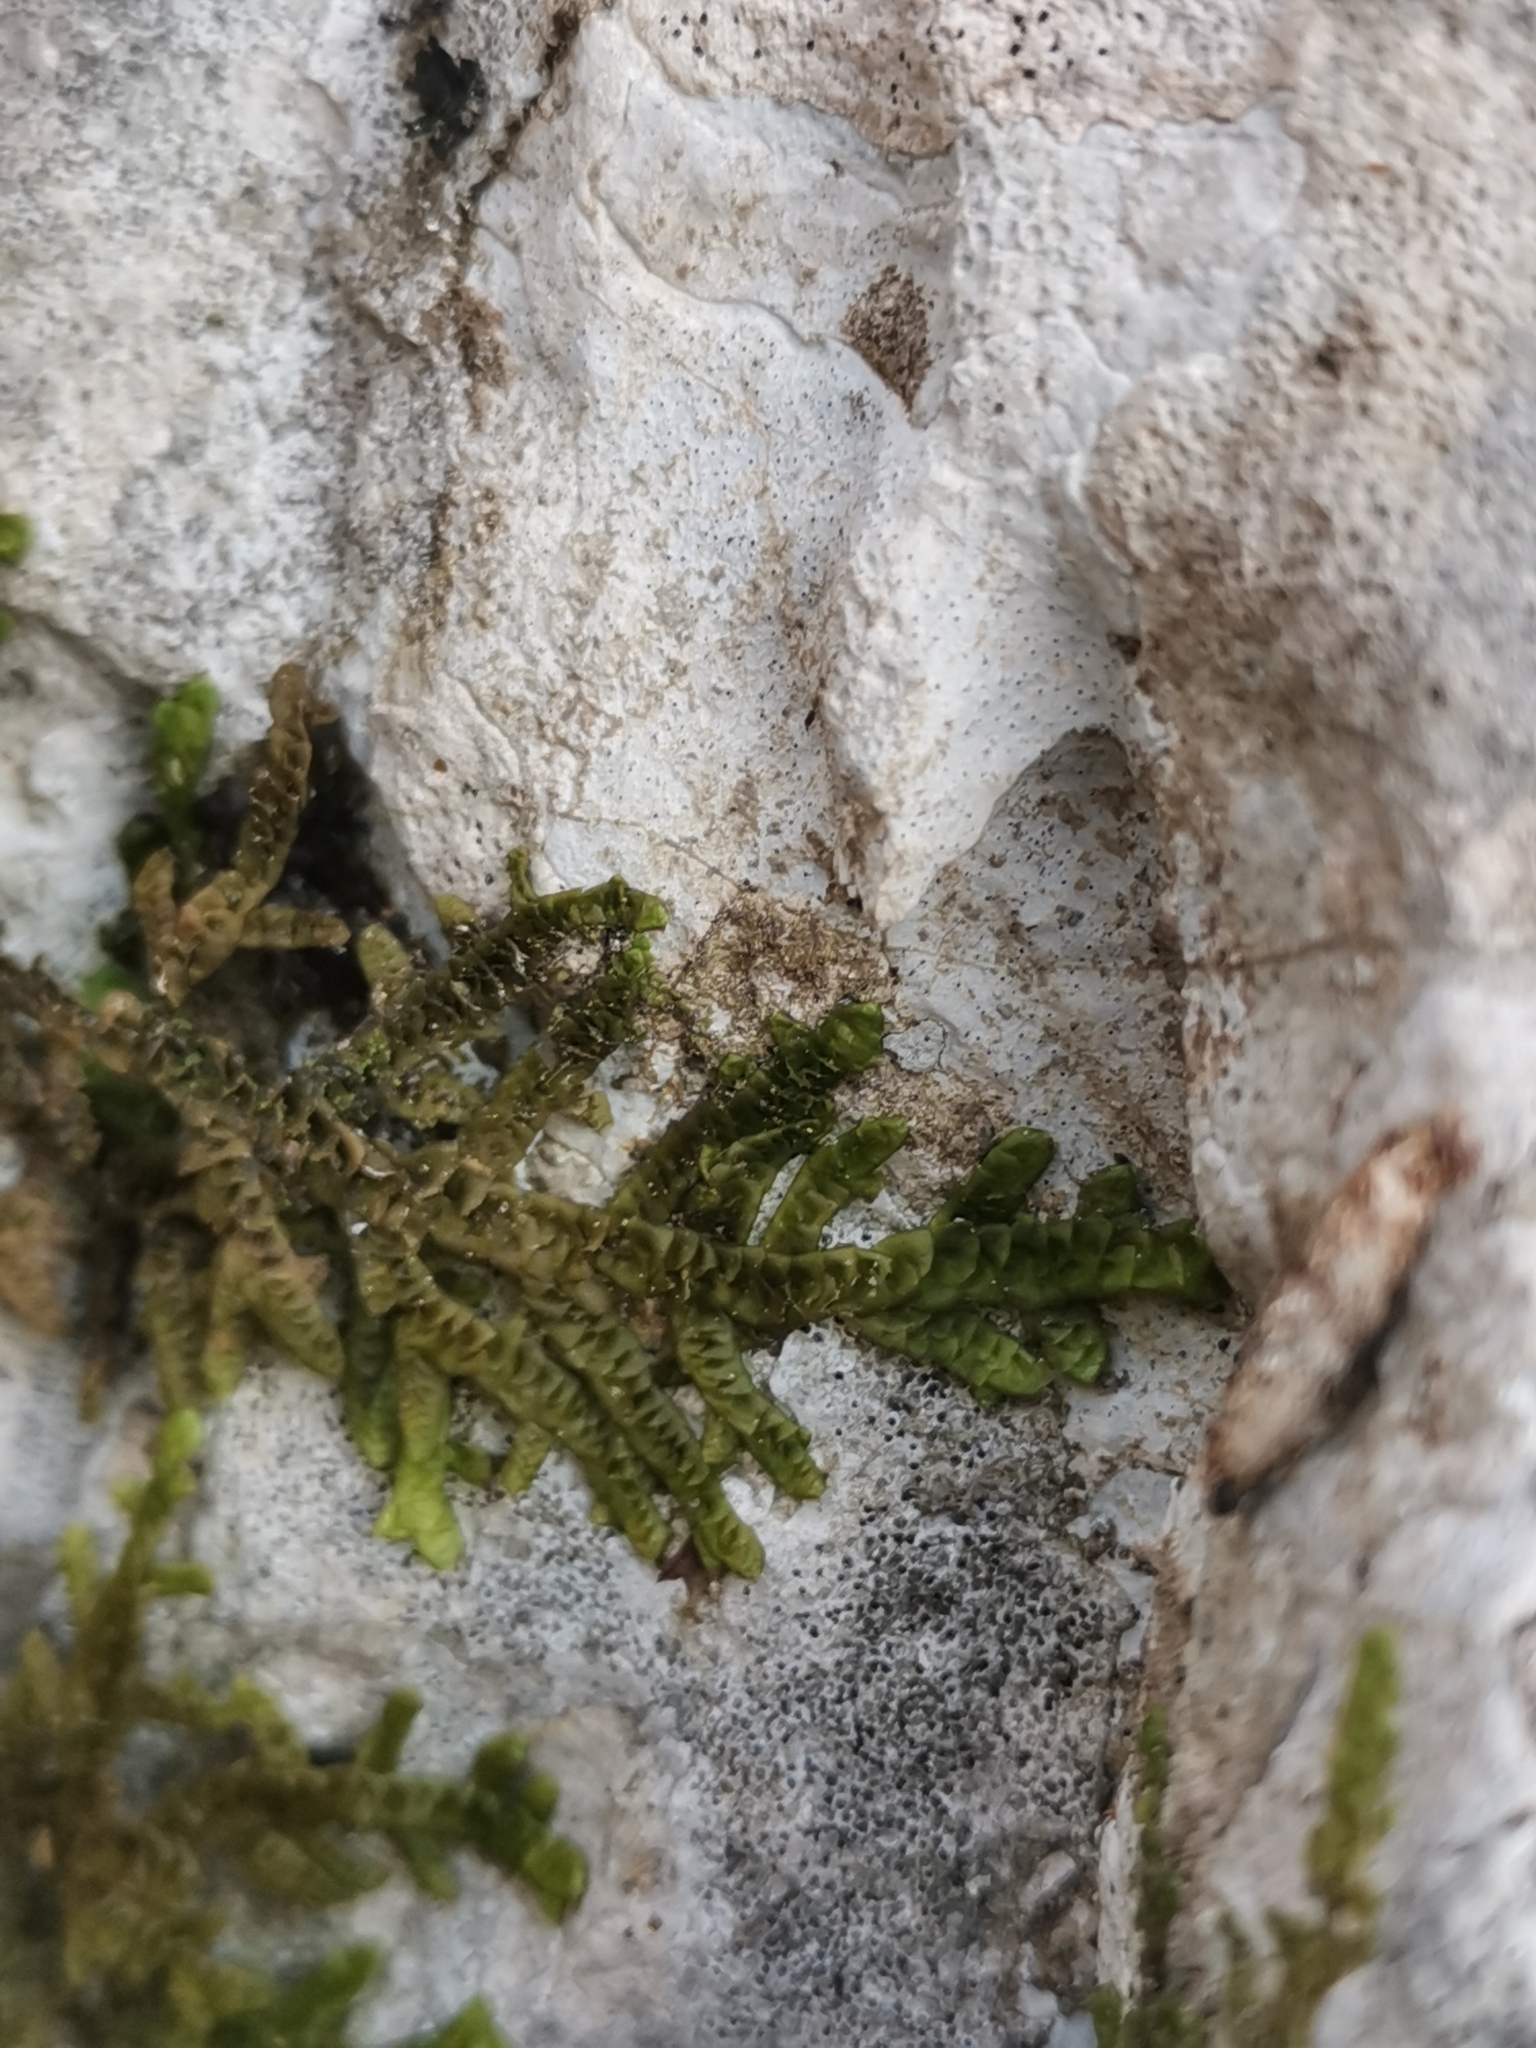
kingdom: Plantae
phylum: Marchantiophyta
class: Jungermanniopsida
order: Porellales
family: Porellaceae
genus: Porella
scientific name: Porella platyphylla
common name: Wall scalewort
